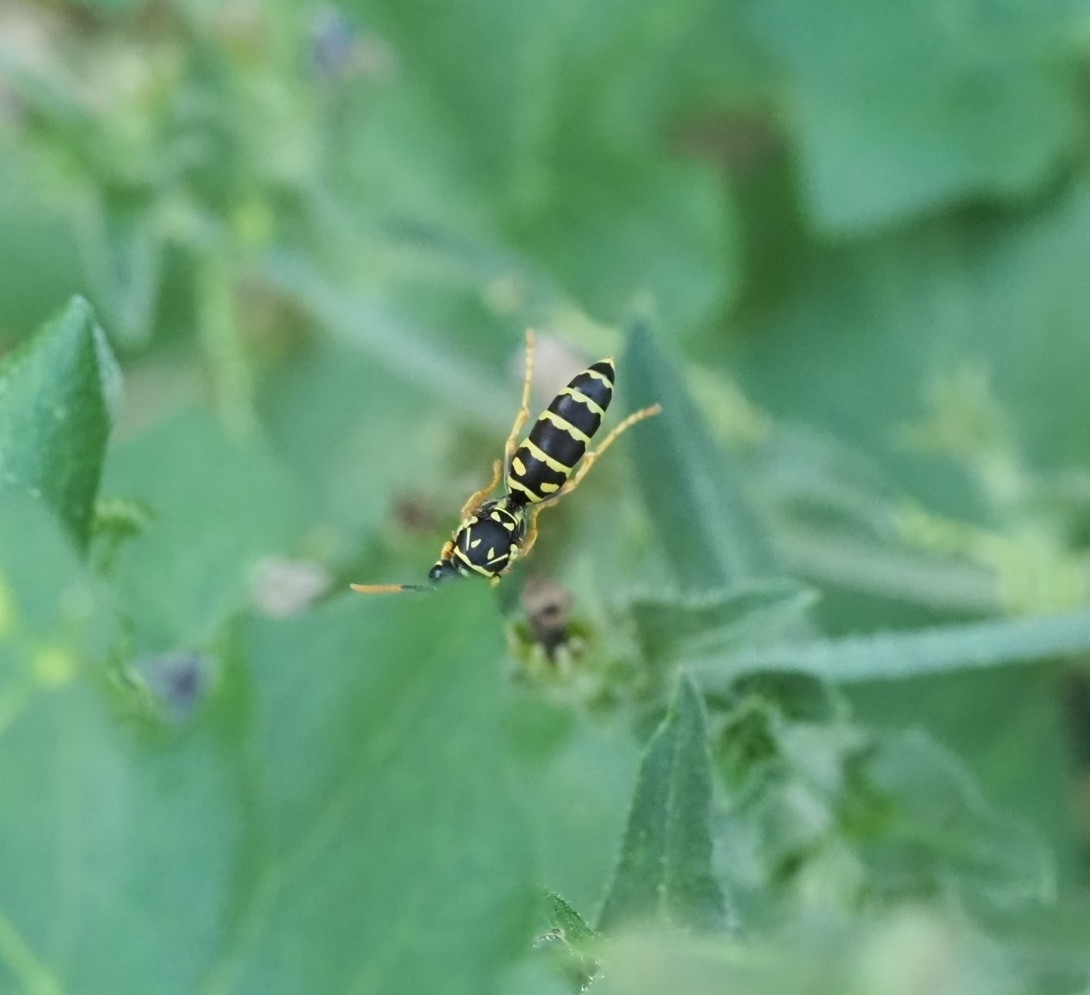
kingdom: Animalia
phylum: Arthropoda
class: Insecta
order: Hymenoptera
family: Eumenidae
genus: Polistes
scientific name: Polistes dominula
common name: Paper wasp
